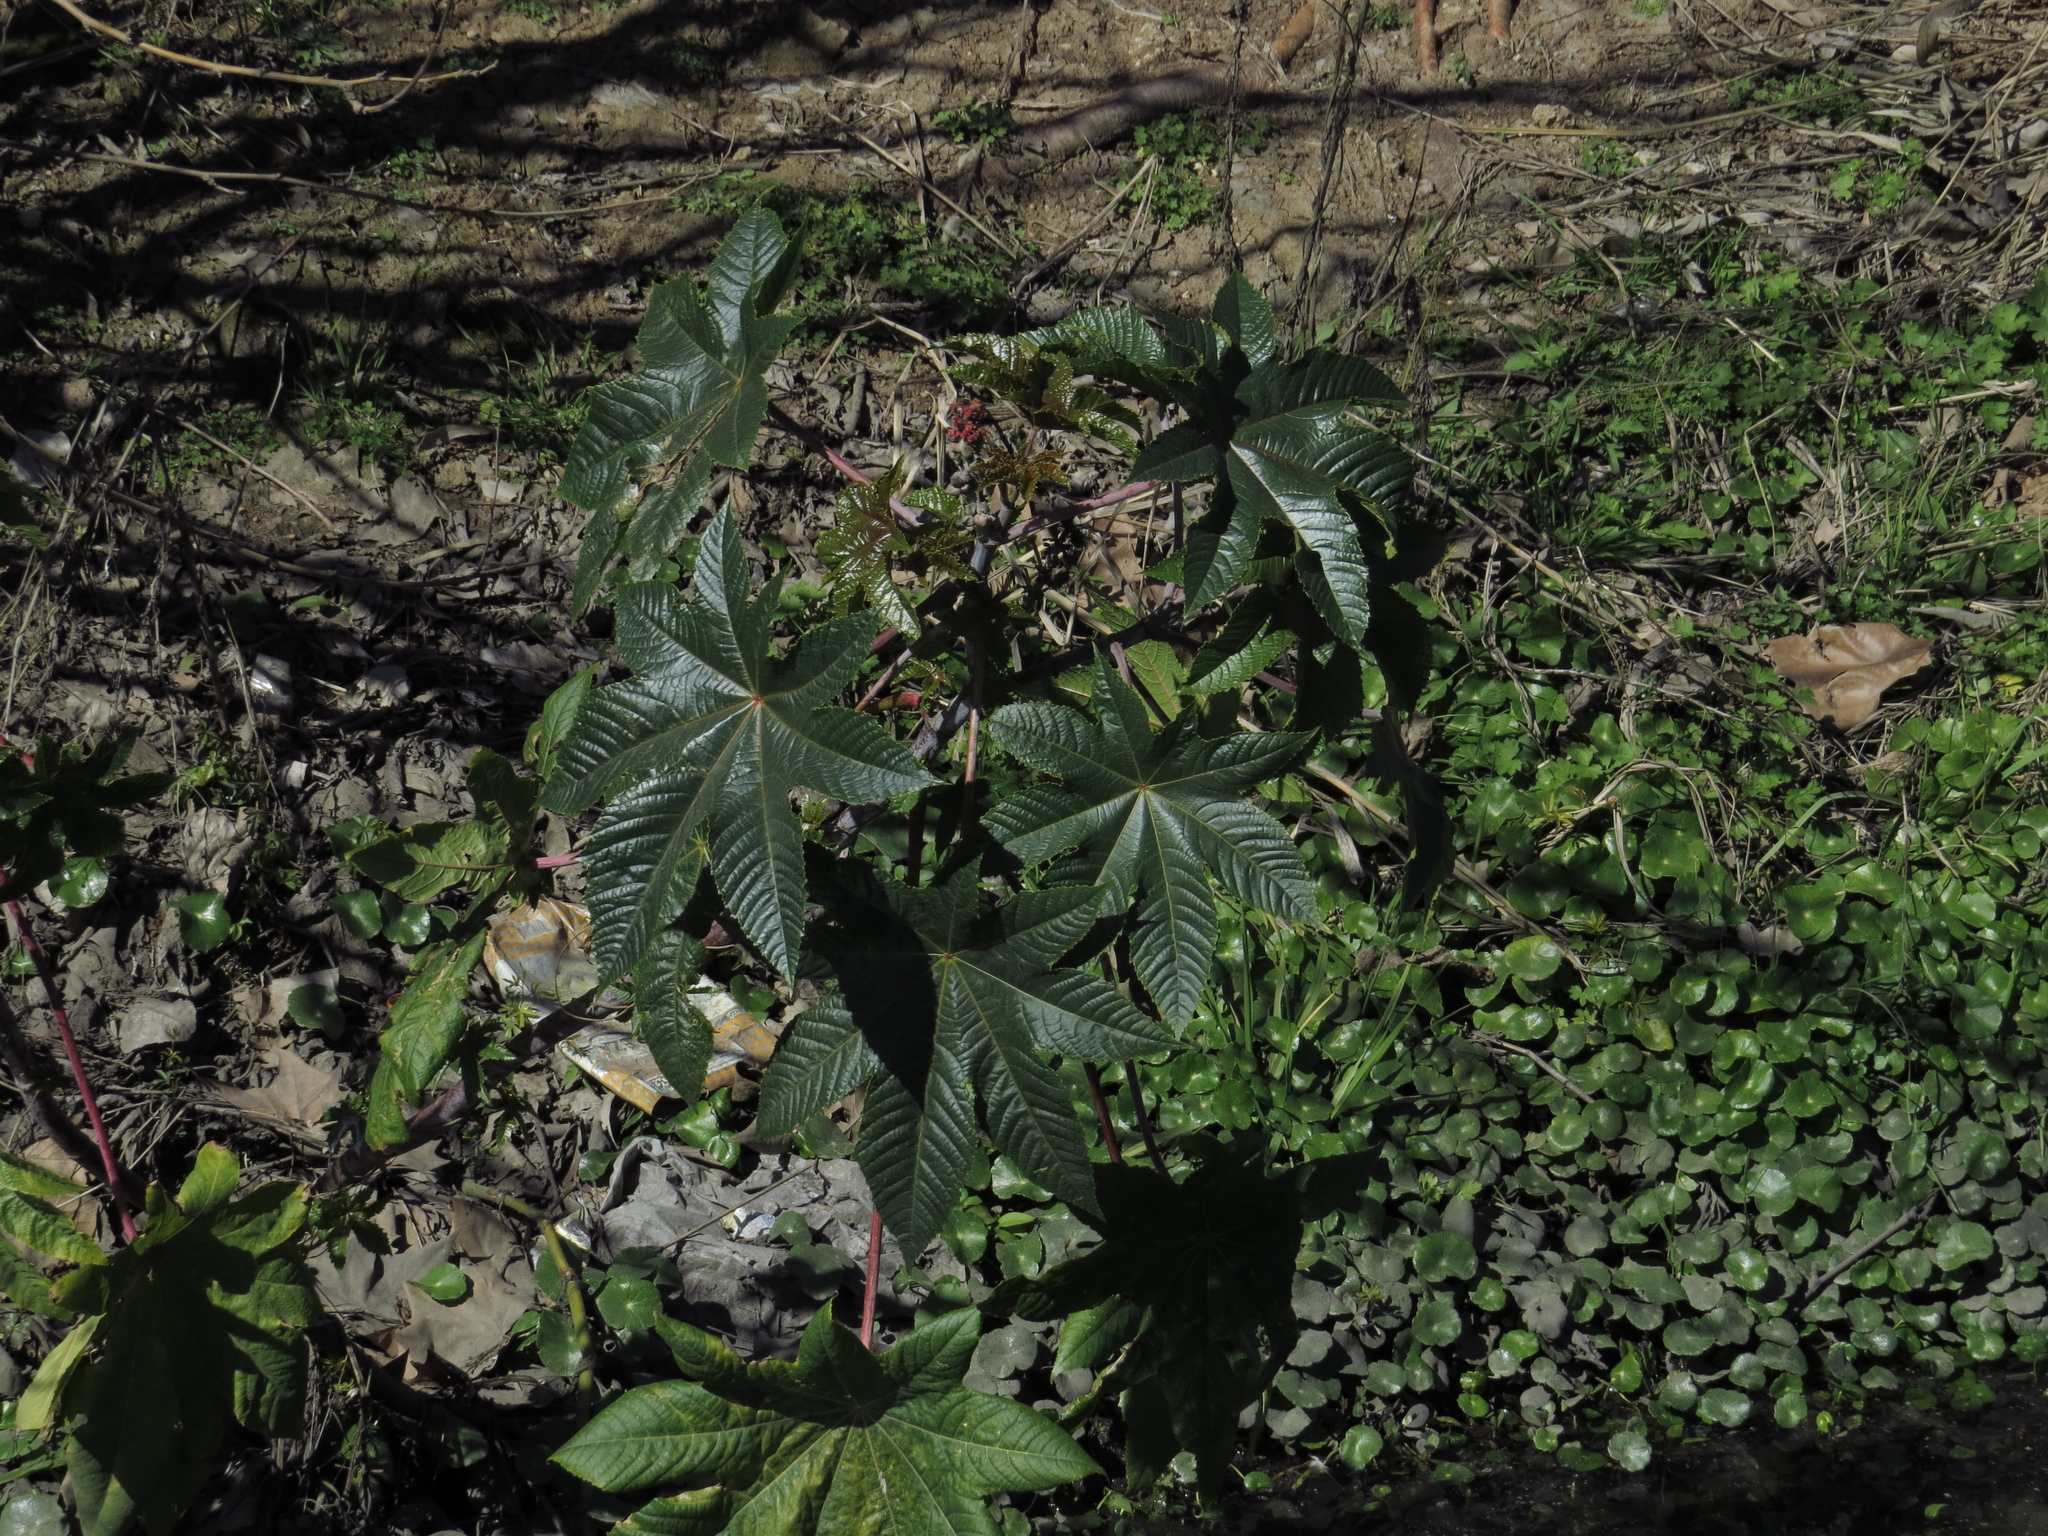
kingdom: Plantae
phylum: Tracheophyta
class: Magnoliopsida
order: Malpighiales
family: Euphorbiaceae
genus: Ricinus
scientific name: Ricinus communis
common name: Castor-oil-plant
